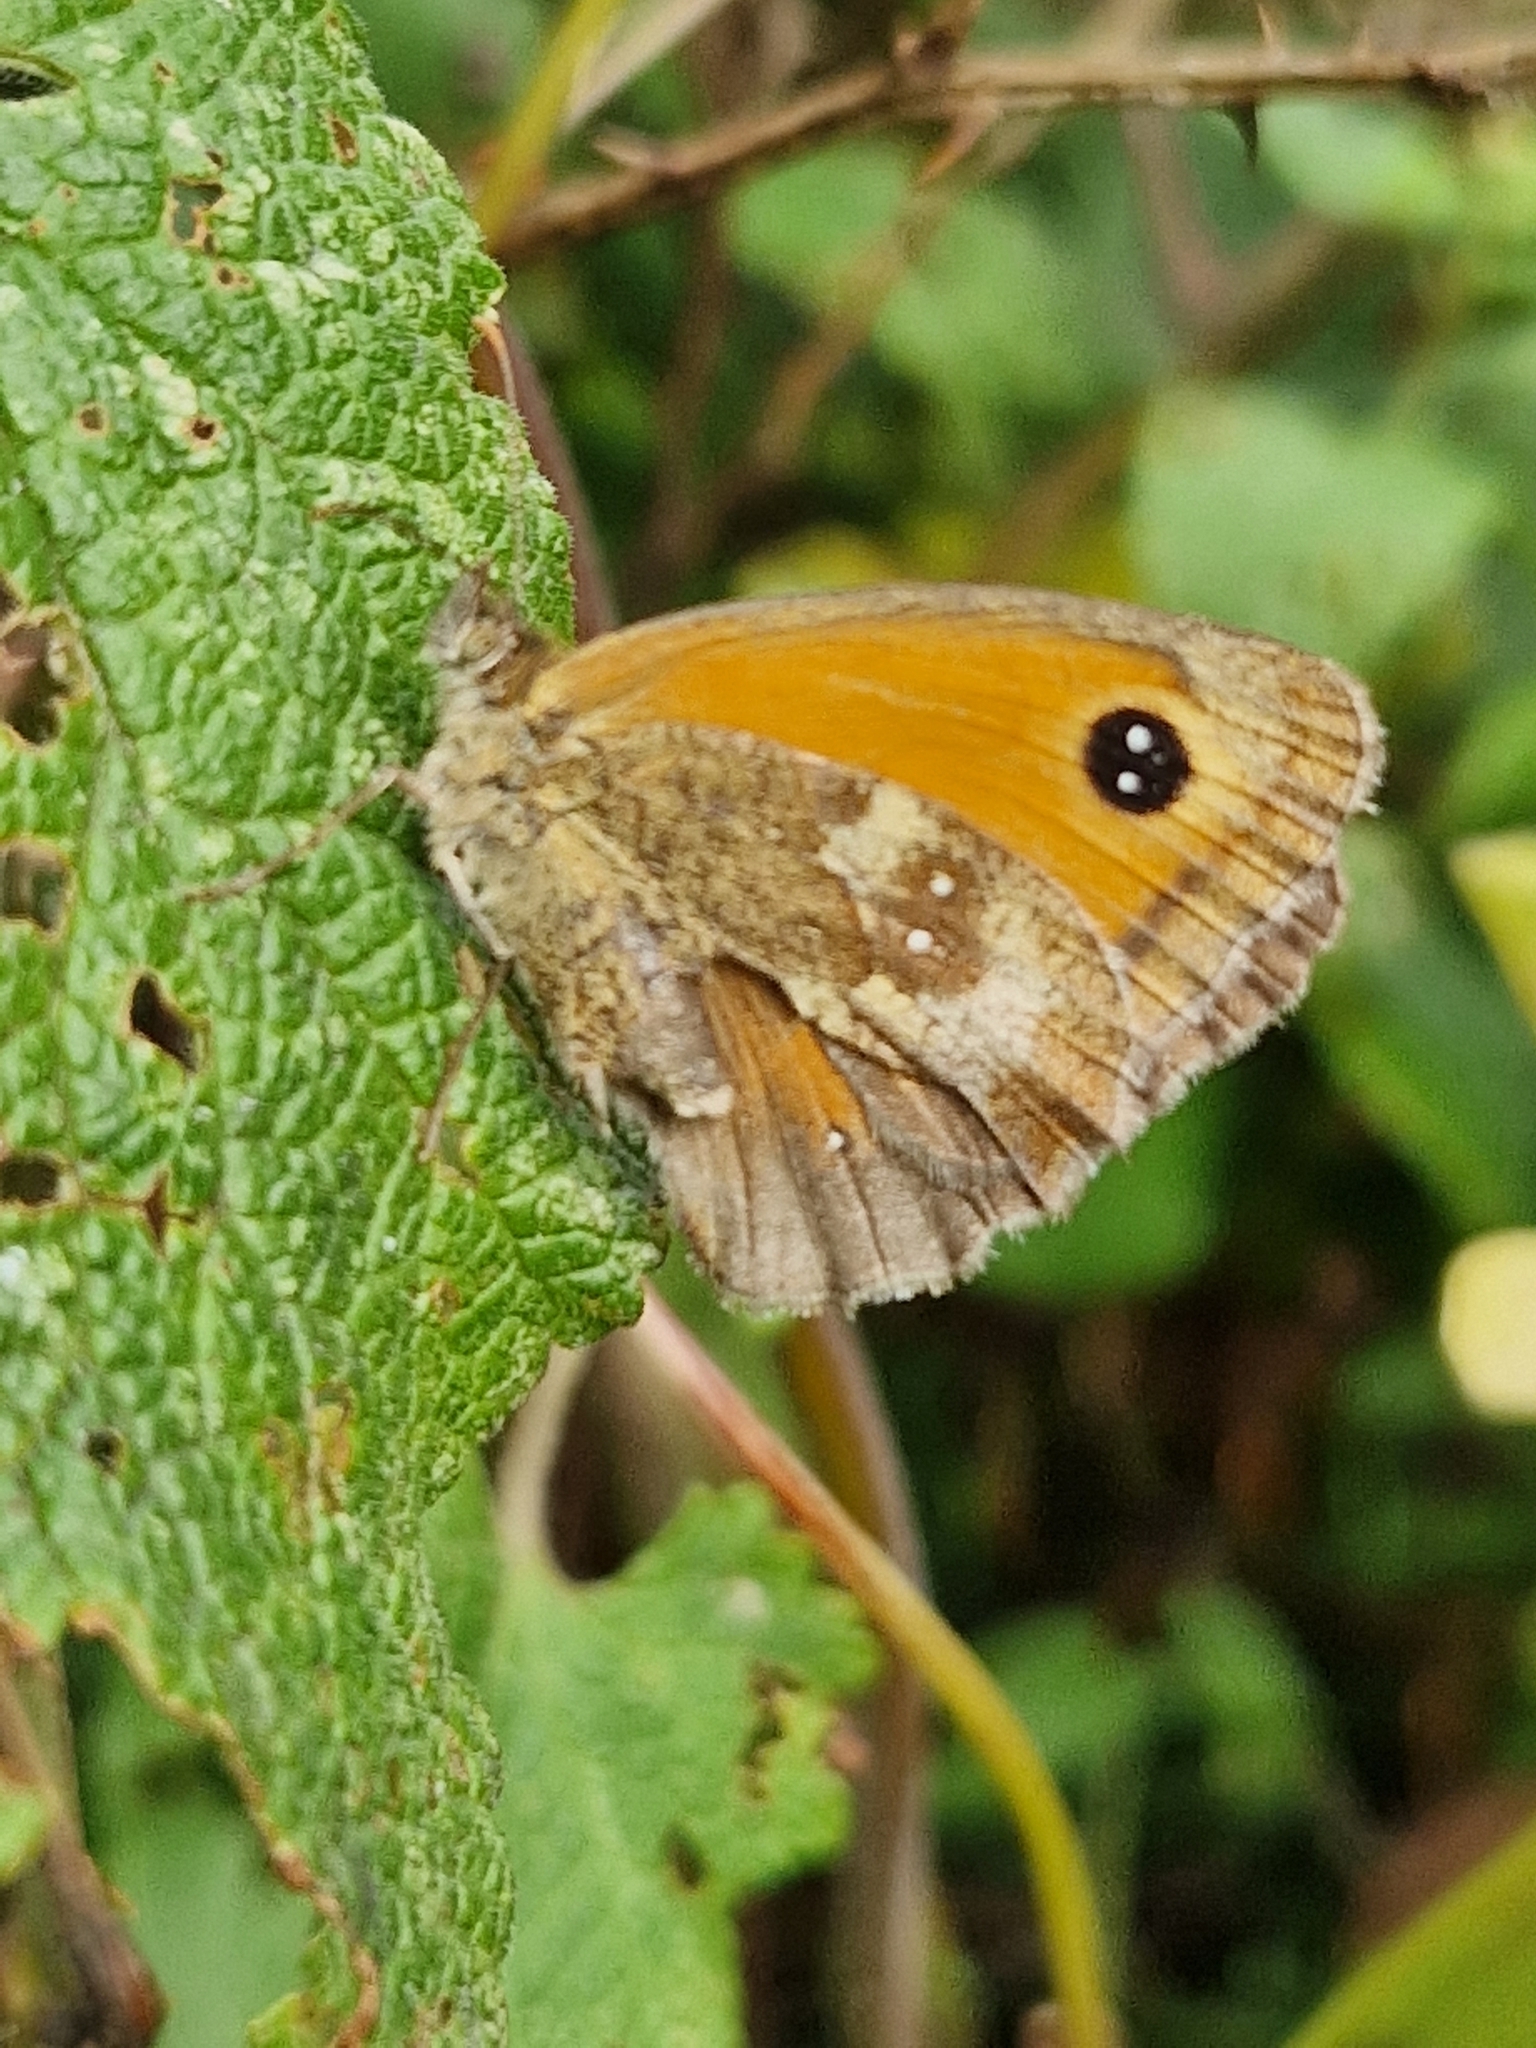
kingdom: Animalia
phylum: Arthropoda
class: Insecta
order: Lepidoptera
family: Nymphalidae
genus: Pyronia
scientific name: Pyronia tithonus
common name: Gatekeeper
